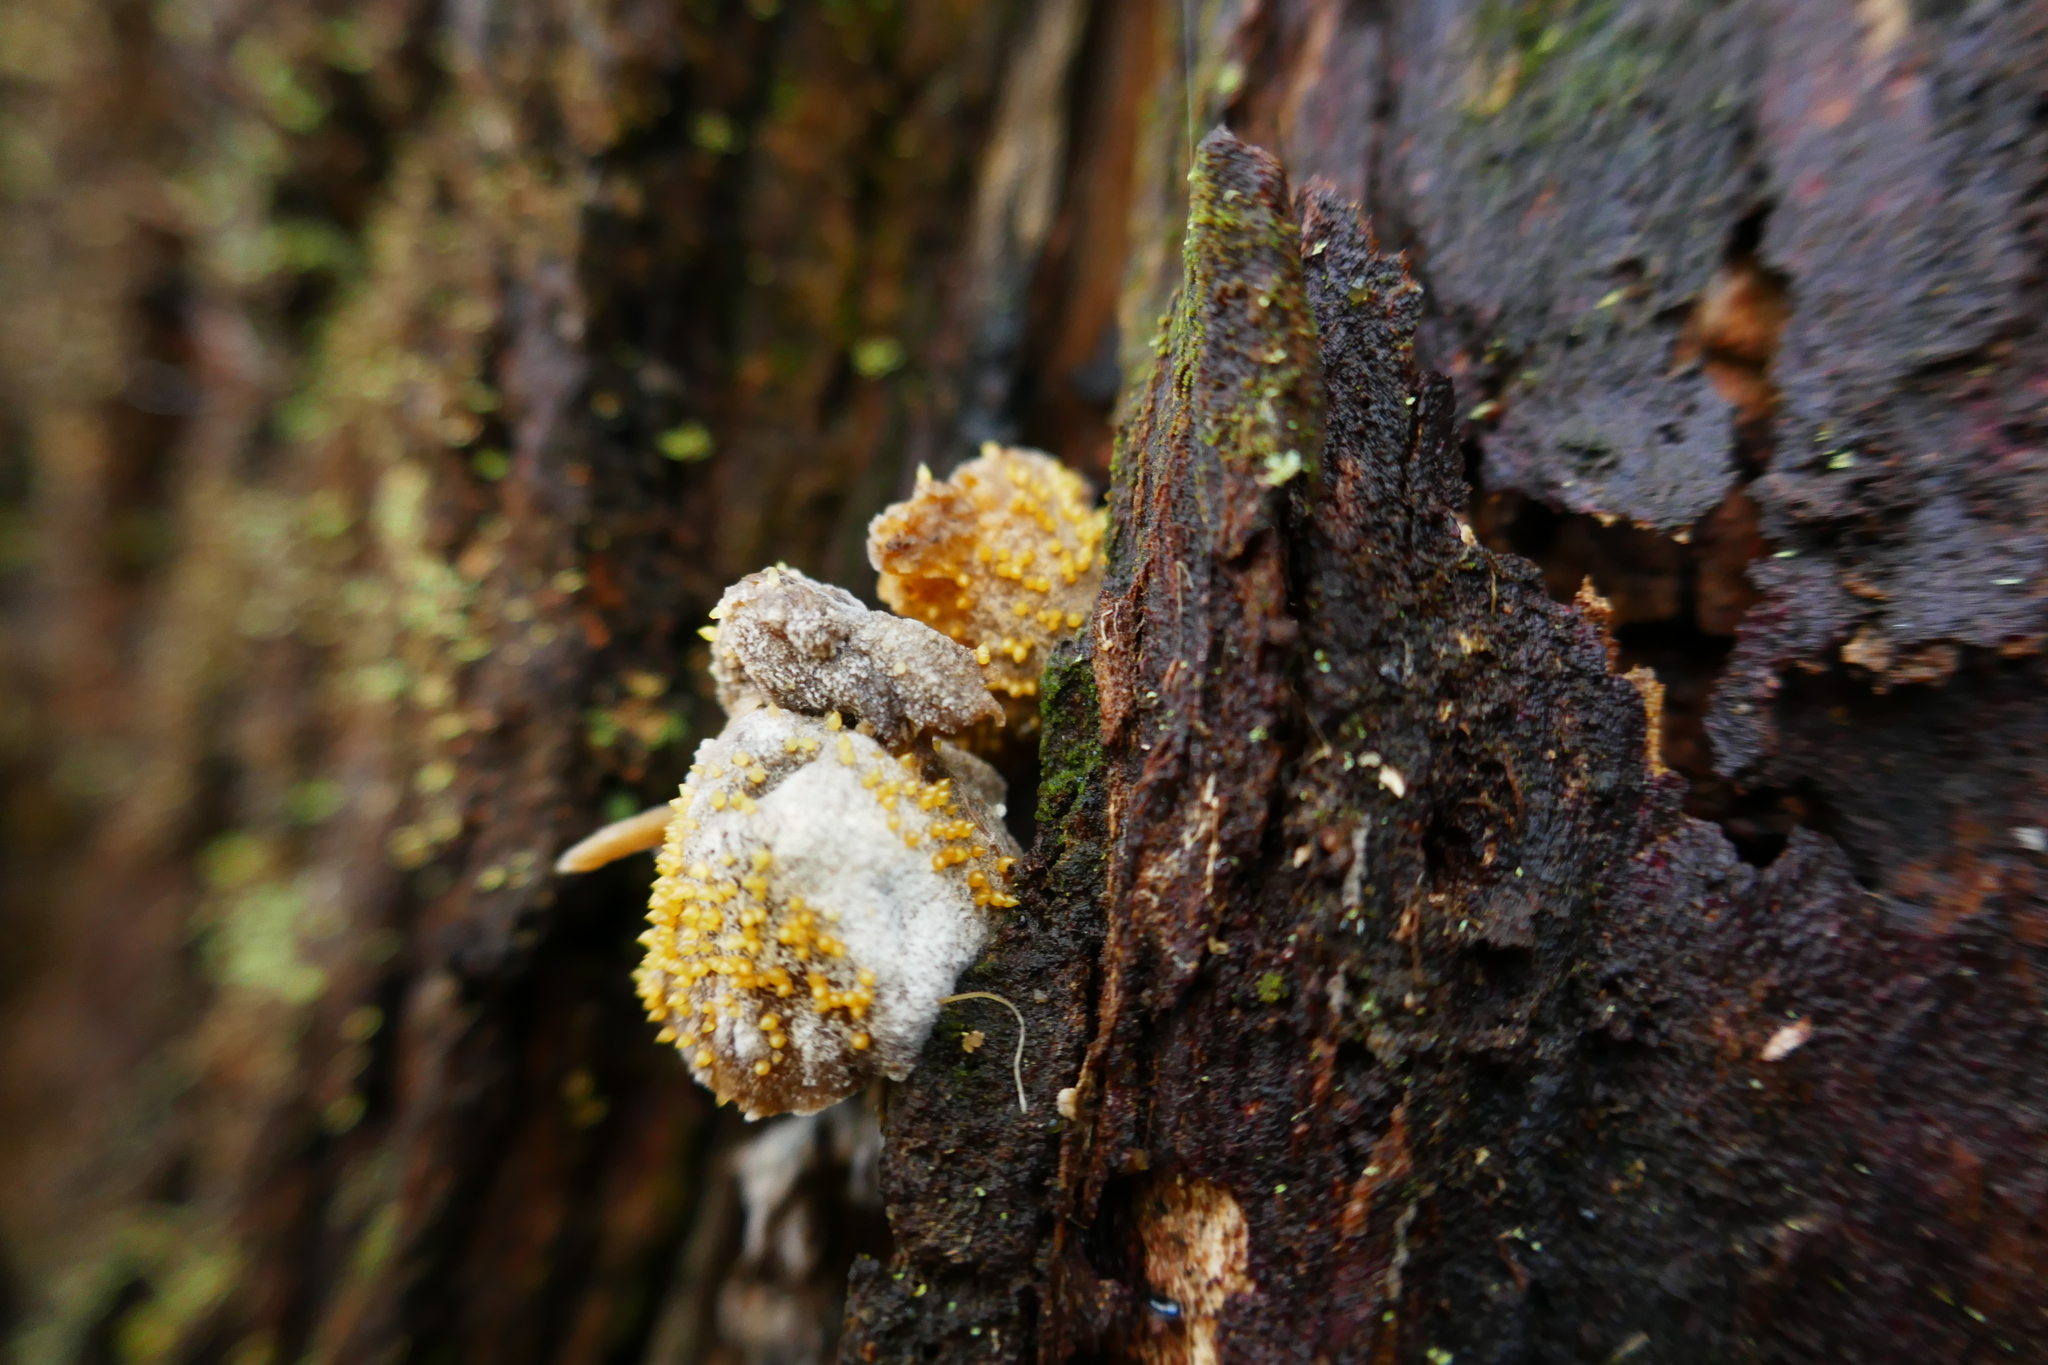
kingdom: Fungi
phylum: Ascomycota
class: Sordariomycetes
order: Hypocreales
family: Clavicipitaceae
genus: Neobarya
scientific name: Neobarya agaricicola
